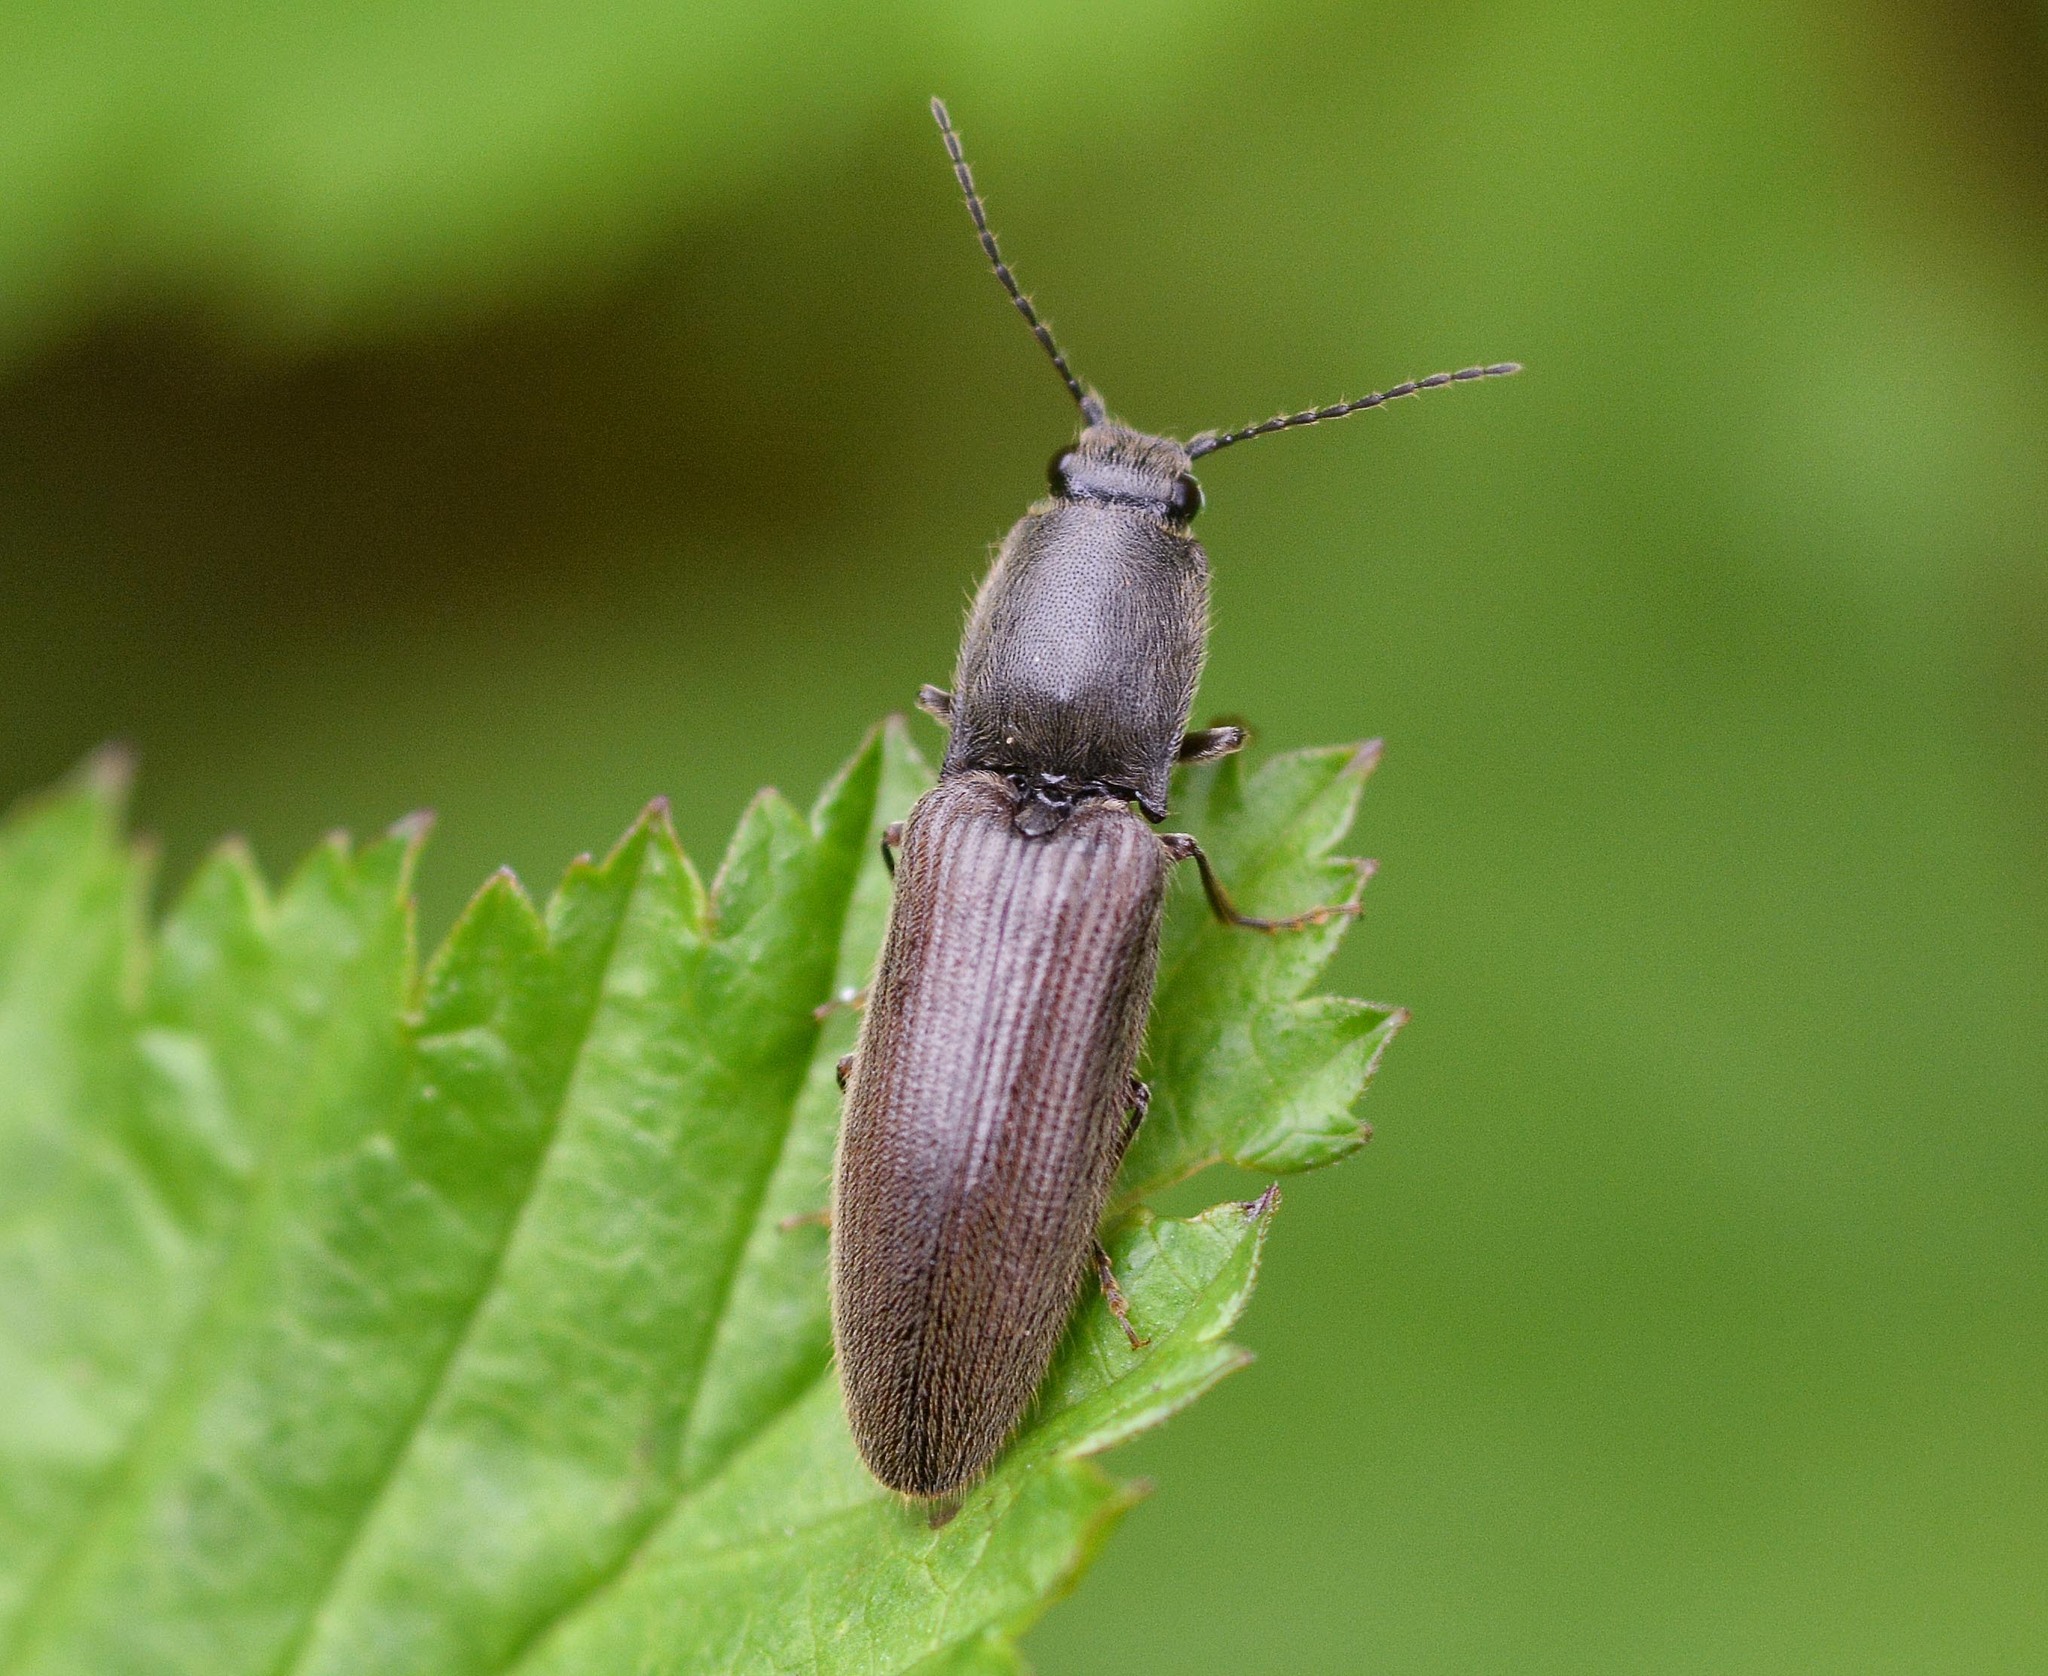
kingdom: Animalia
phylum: Arthropoda
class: Insecta
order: Coleoptera
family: Elateridae
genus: Athous
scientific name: Athous haemorrhoidalis
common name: Red-brown click beetle
